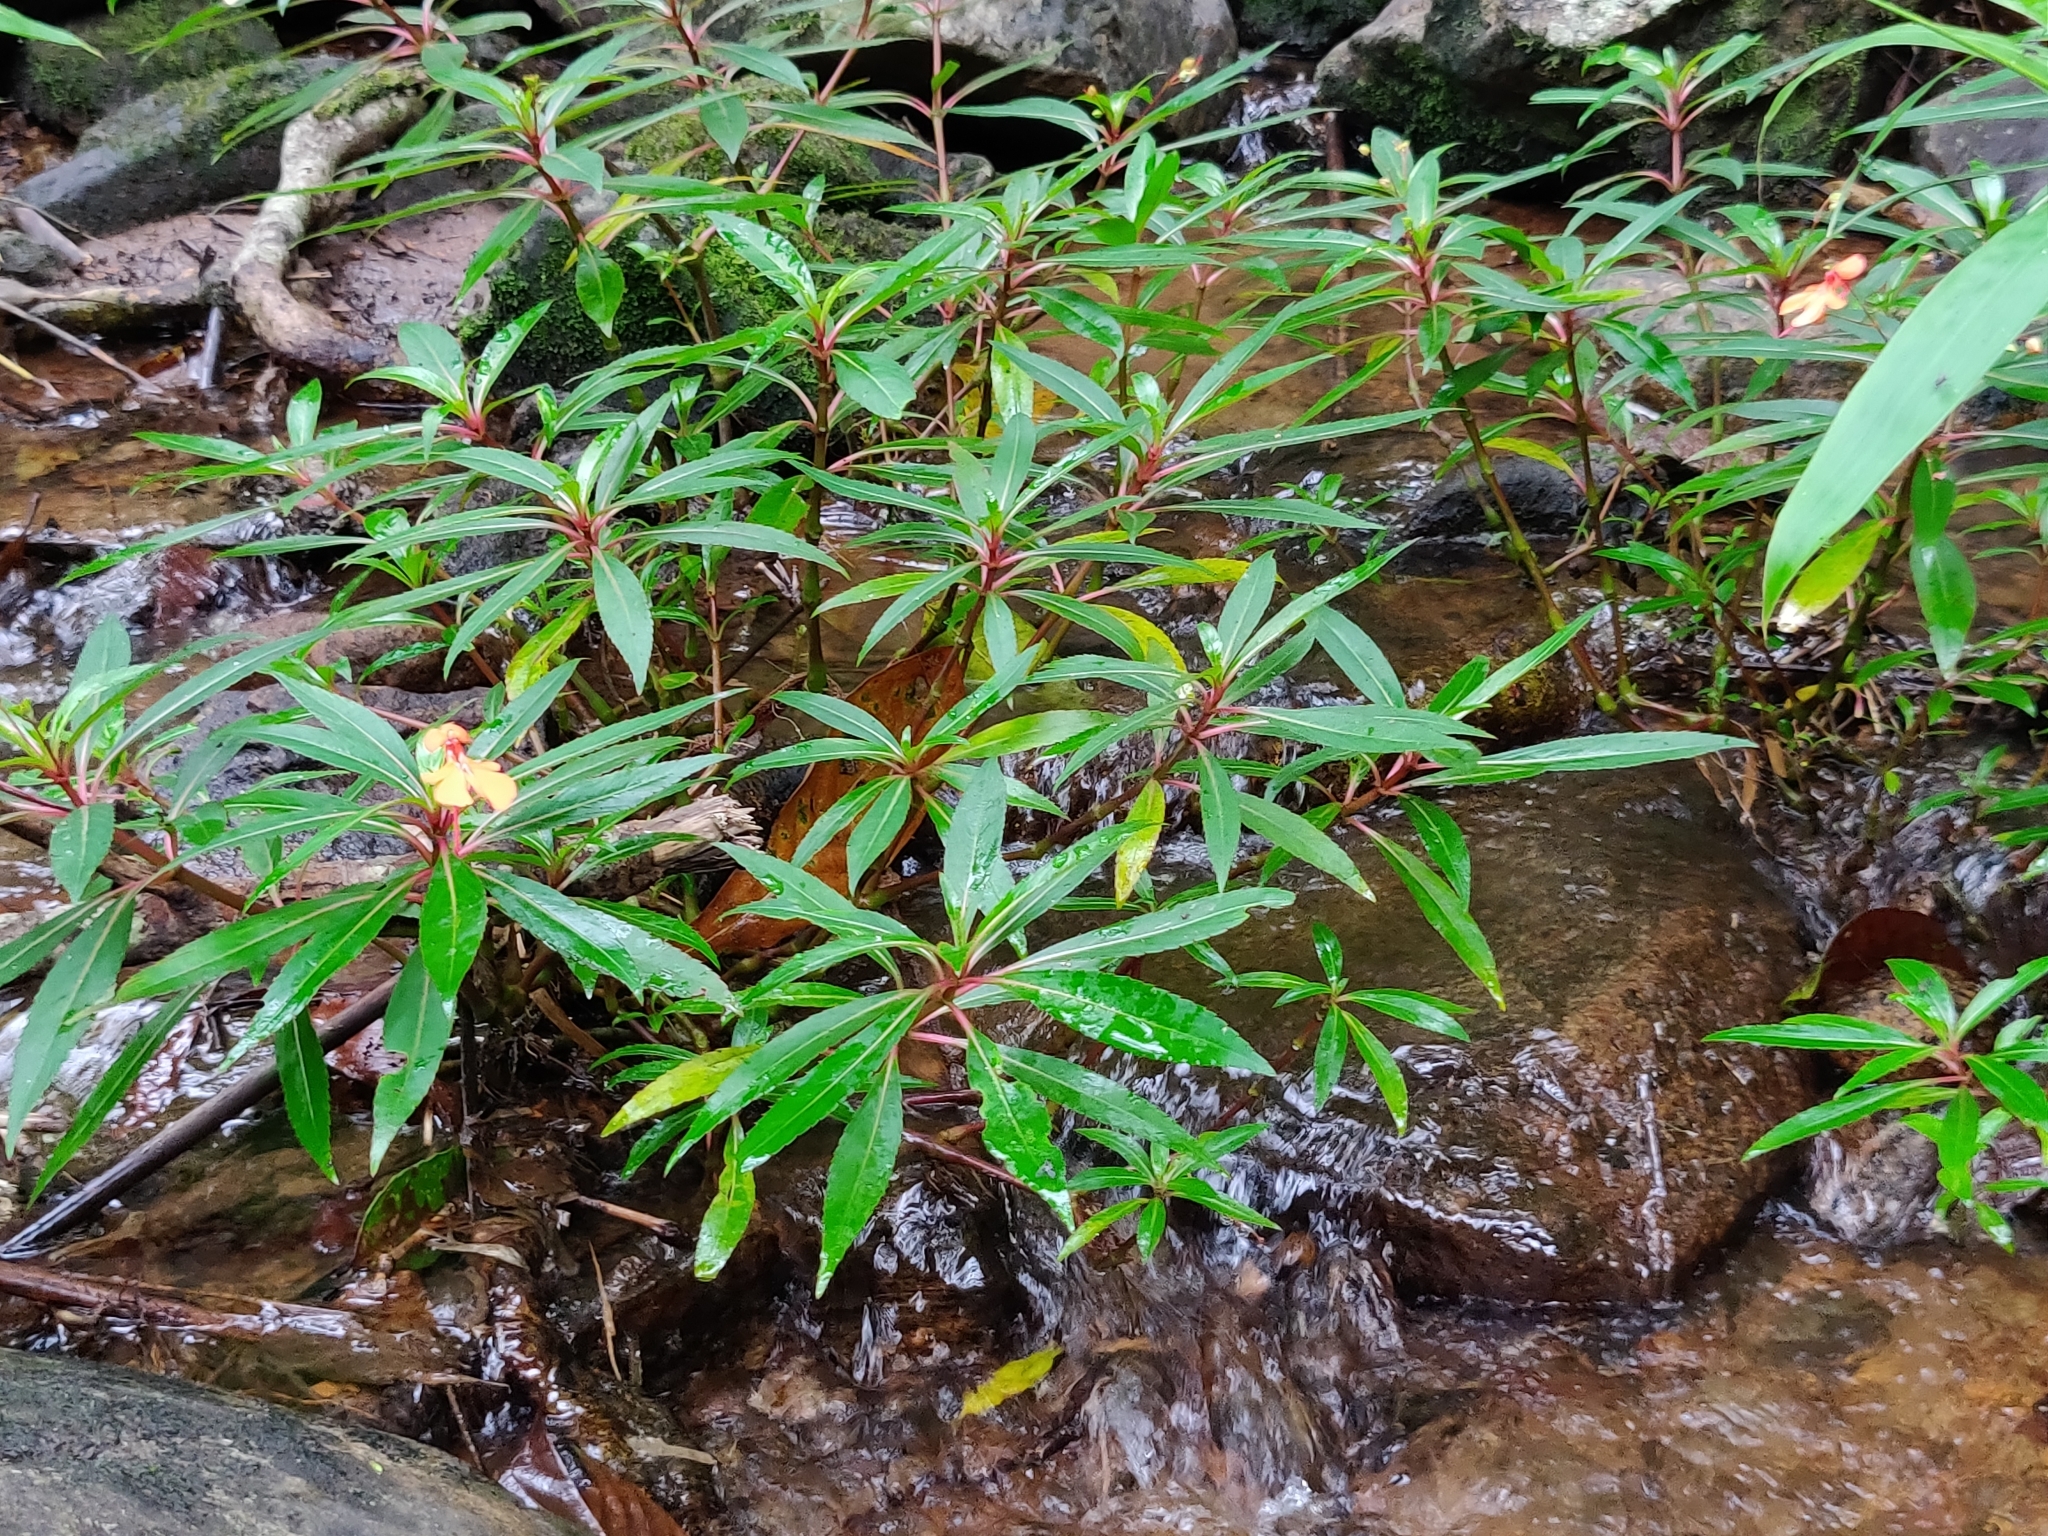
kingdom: Plantae
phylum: Tracheophyta
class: Magnoliopsida
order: Ericales
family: Balsaminaceae
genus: Impatiens
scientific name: Impatiens verticillata
